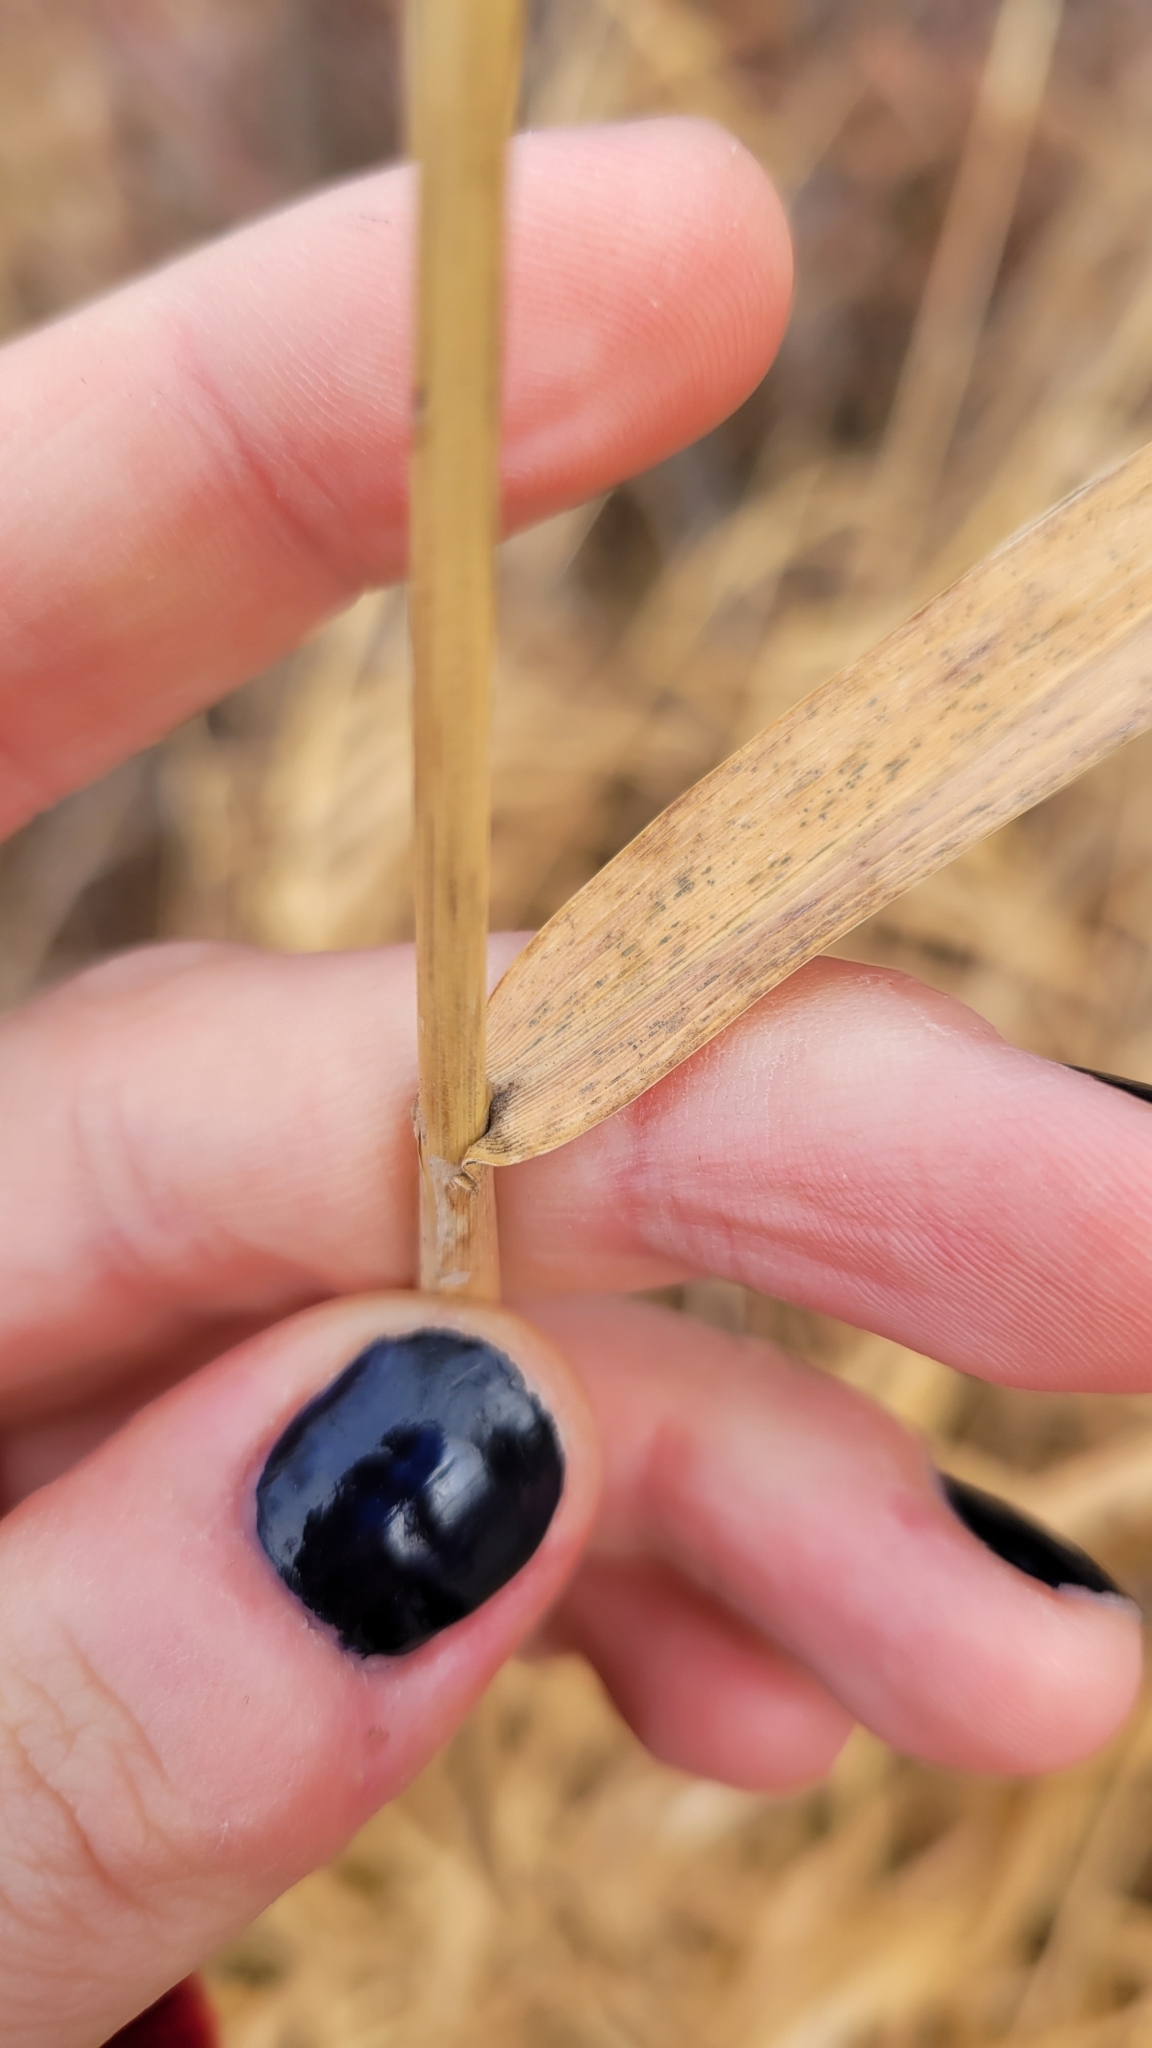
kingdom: Plantae
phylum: Tracheophyta
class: Liliopsida
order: Poales
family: Poaceae
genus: Phalaris
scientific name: Phalaris arundinacea
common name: Reed canary-grass
